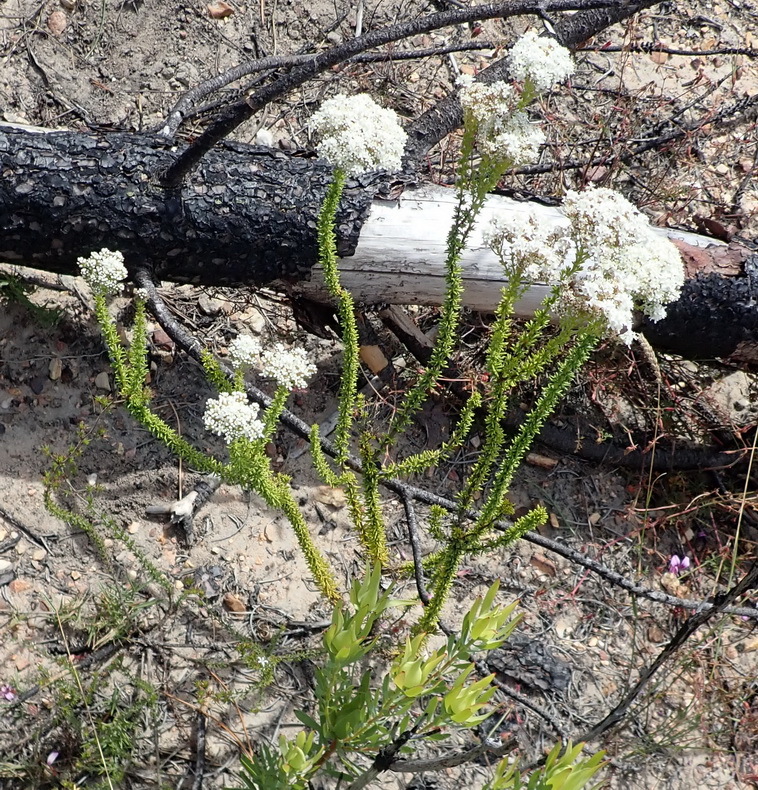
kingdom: Plantae
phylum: Tracheophyta
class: Magnoliopsida
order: Lamiales
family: Scrophulariaceae
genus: Selago
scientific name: Selago dolosa
